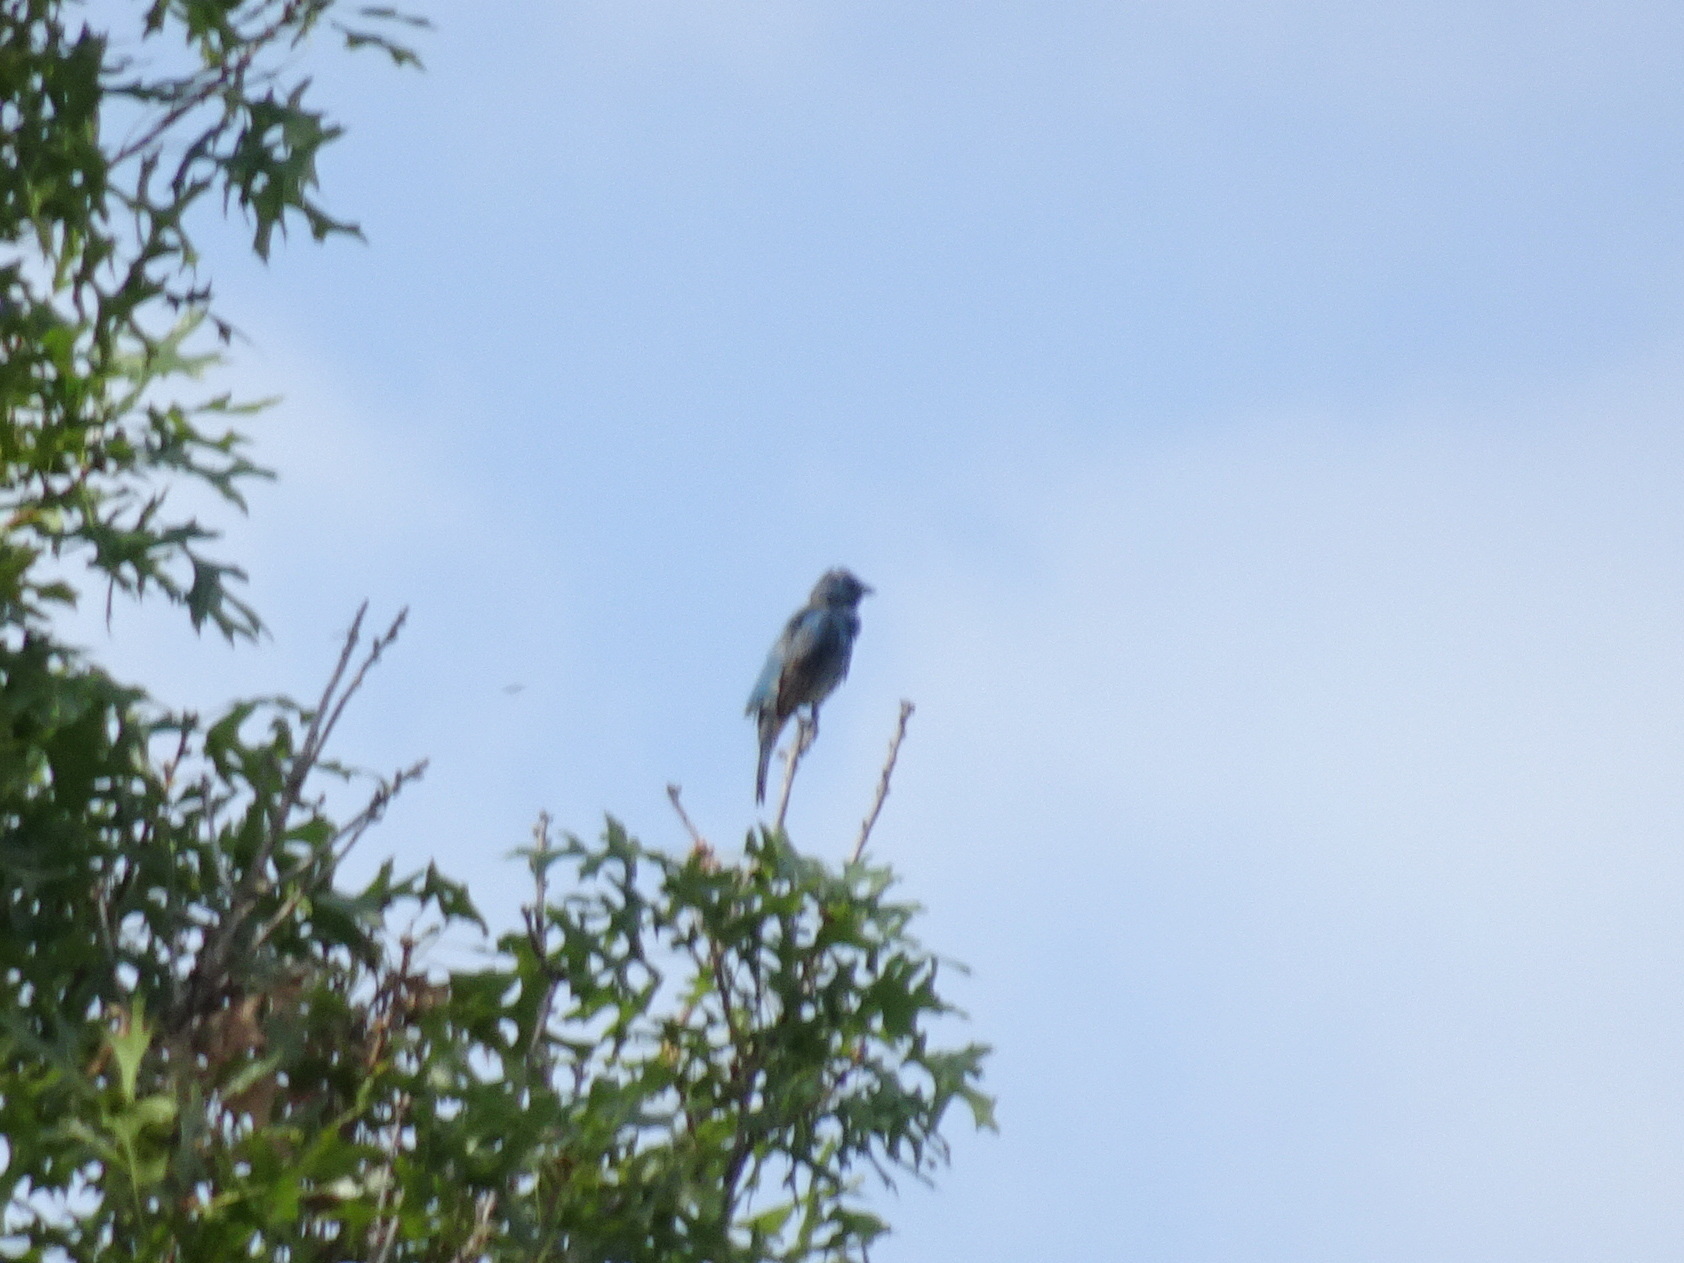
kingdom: Animalia
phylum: Chordata
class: Aves
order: Passeriformes
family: Cardinalidae
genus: Passerina
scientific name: Passerina cyanea
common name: Indigo bunting
